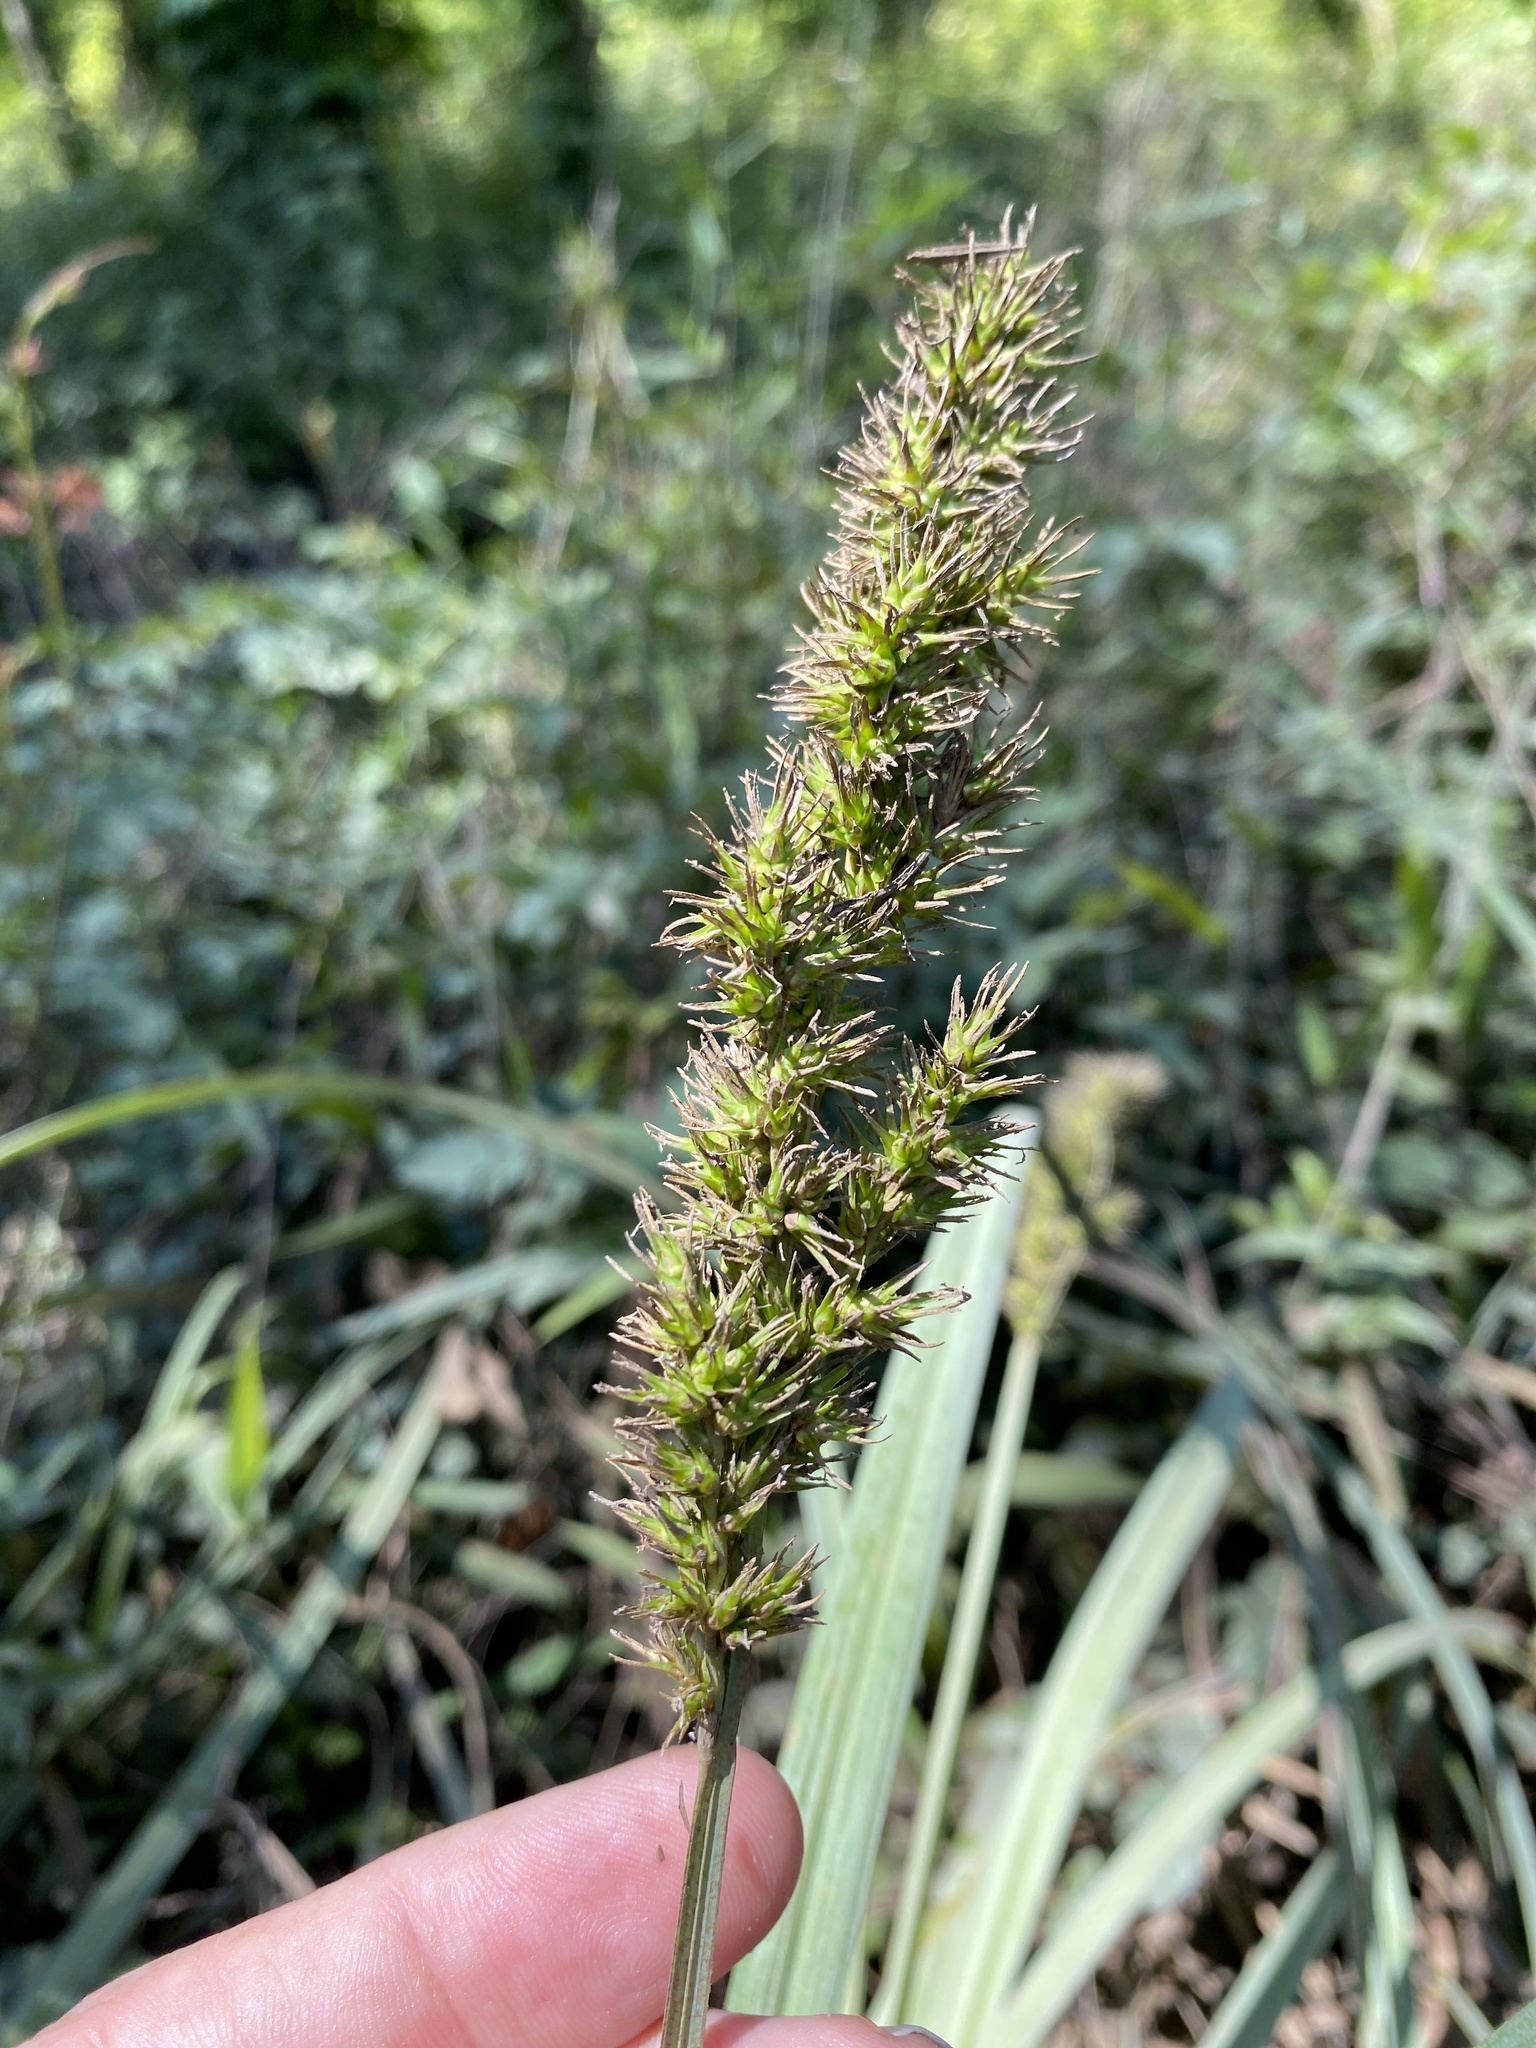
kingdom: Plantae
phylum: Tracheophyta
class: Liliopsida
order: Poales
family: Cyperaceae
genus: Carex
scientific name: Carex crus-corvi
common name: Crow-spur sedge
